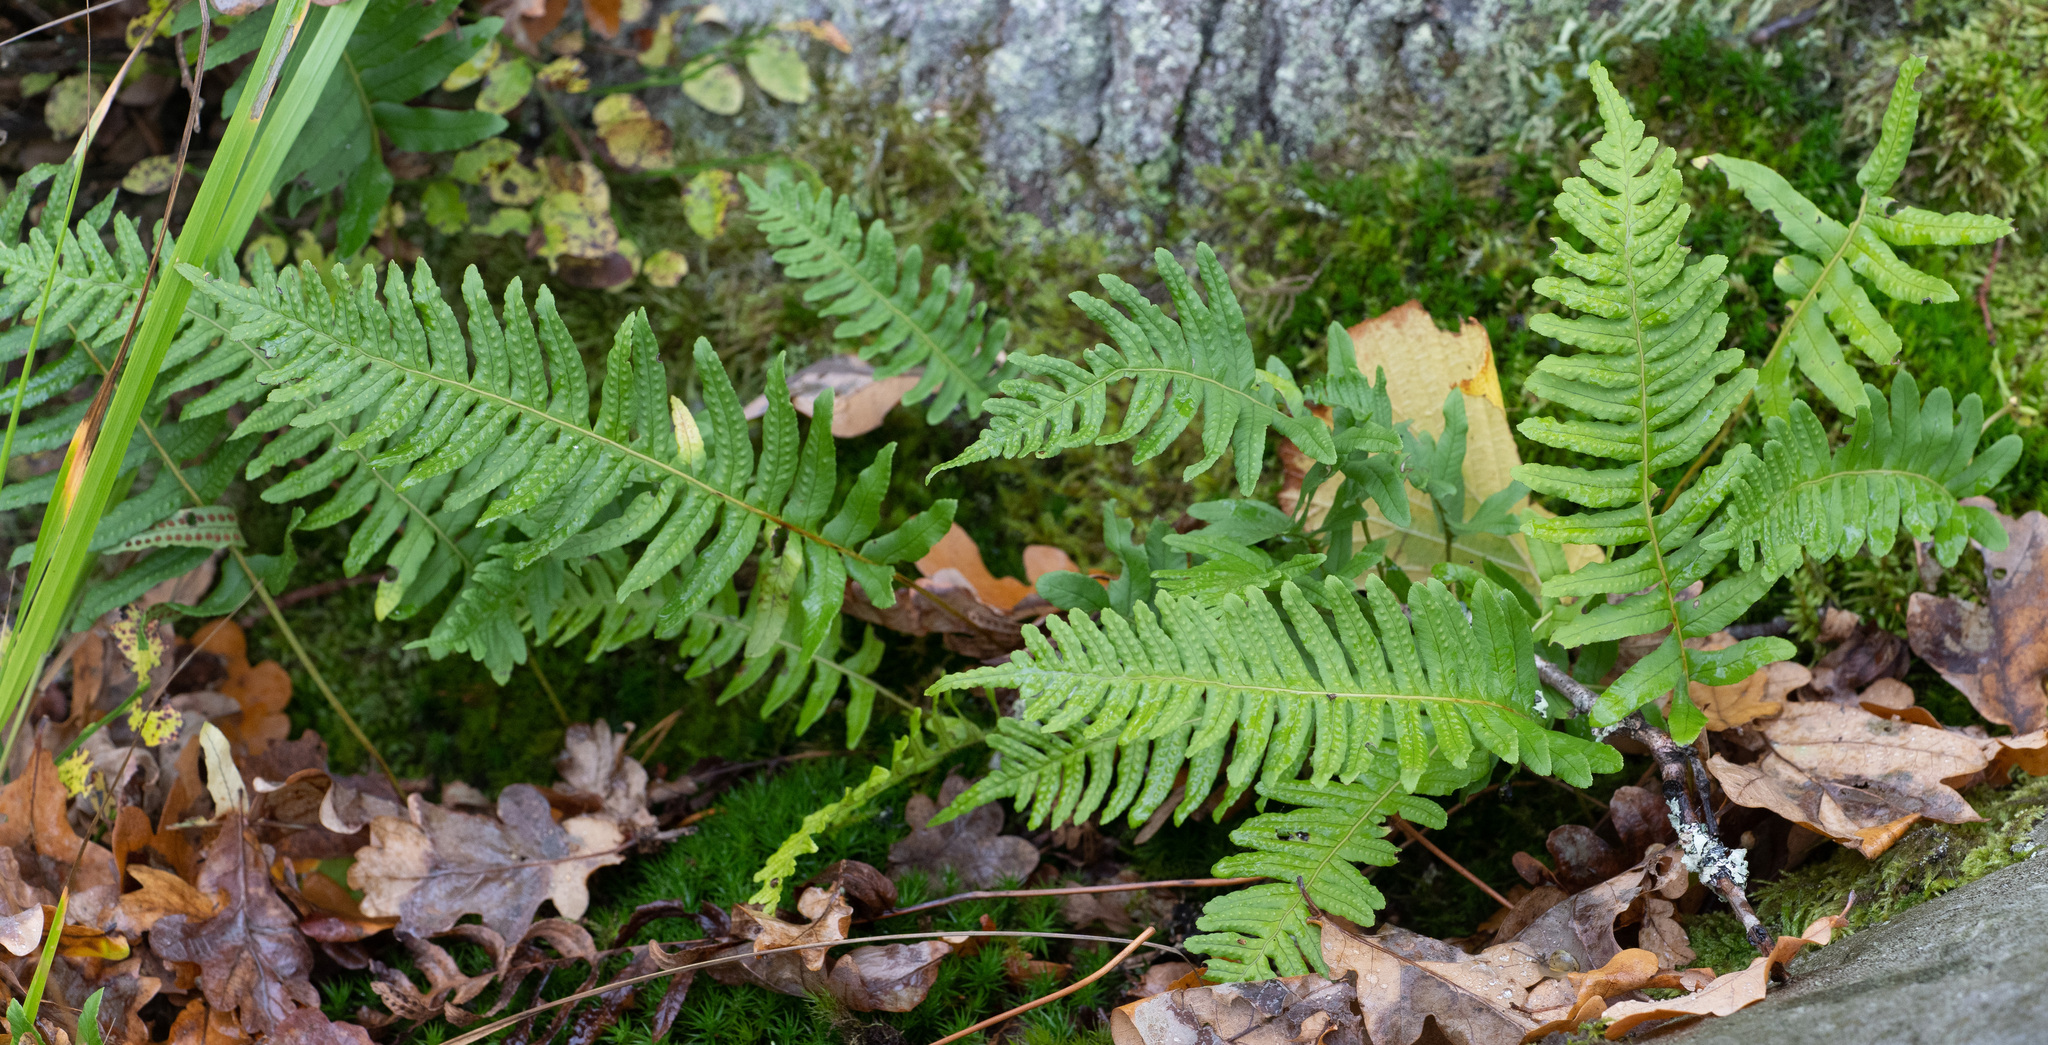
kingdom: Plantae
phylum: Tracheophyta
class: Polypodiopsida
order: Polypodiales
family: Polypodiaceae
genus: Polypodium
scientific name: Polypodium vulgare
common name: Common polypody
